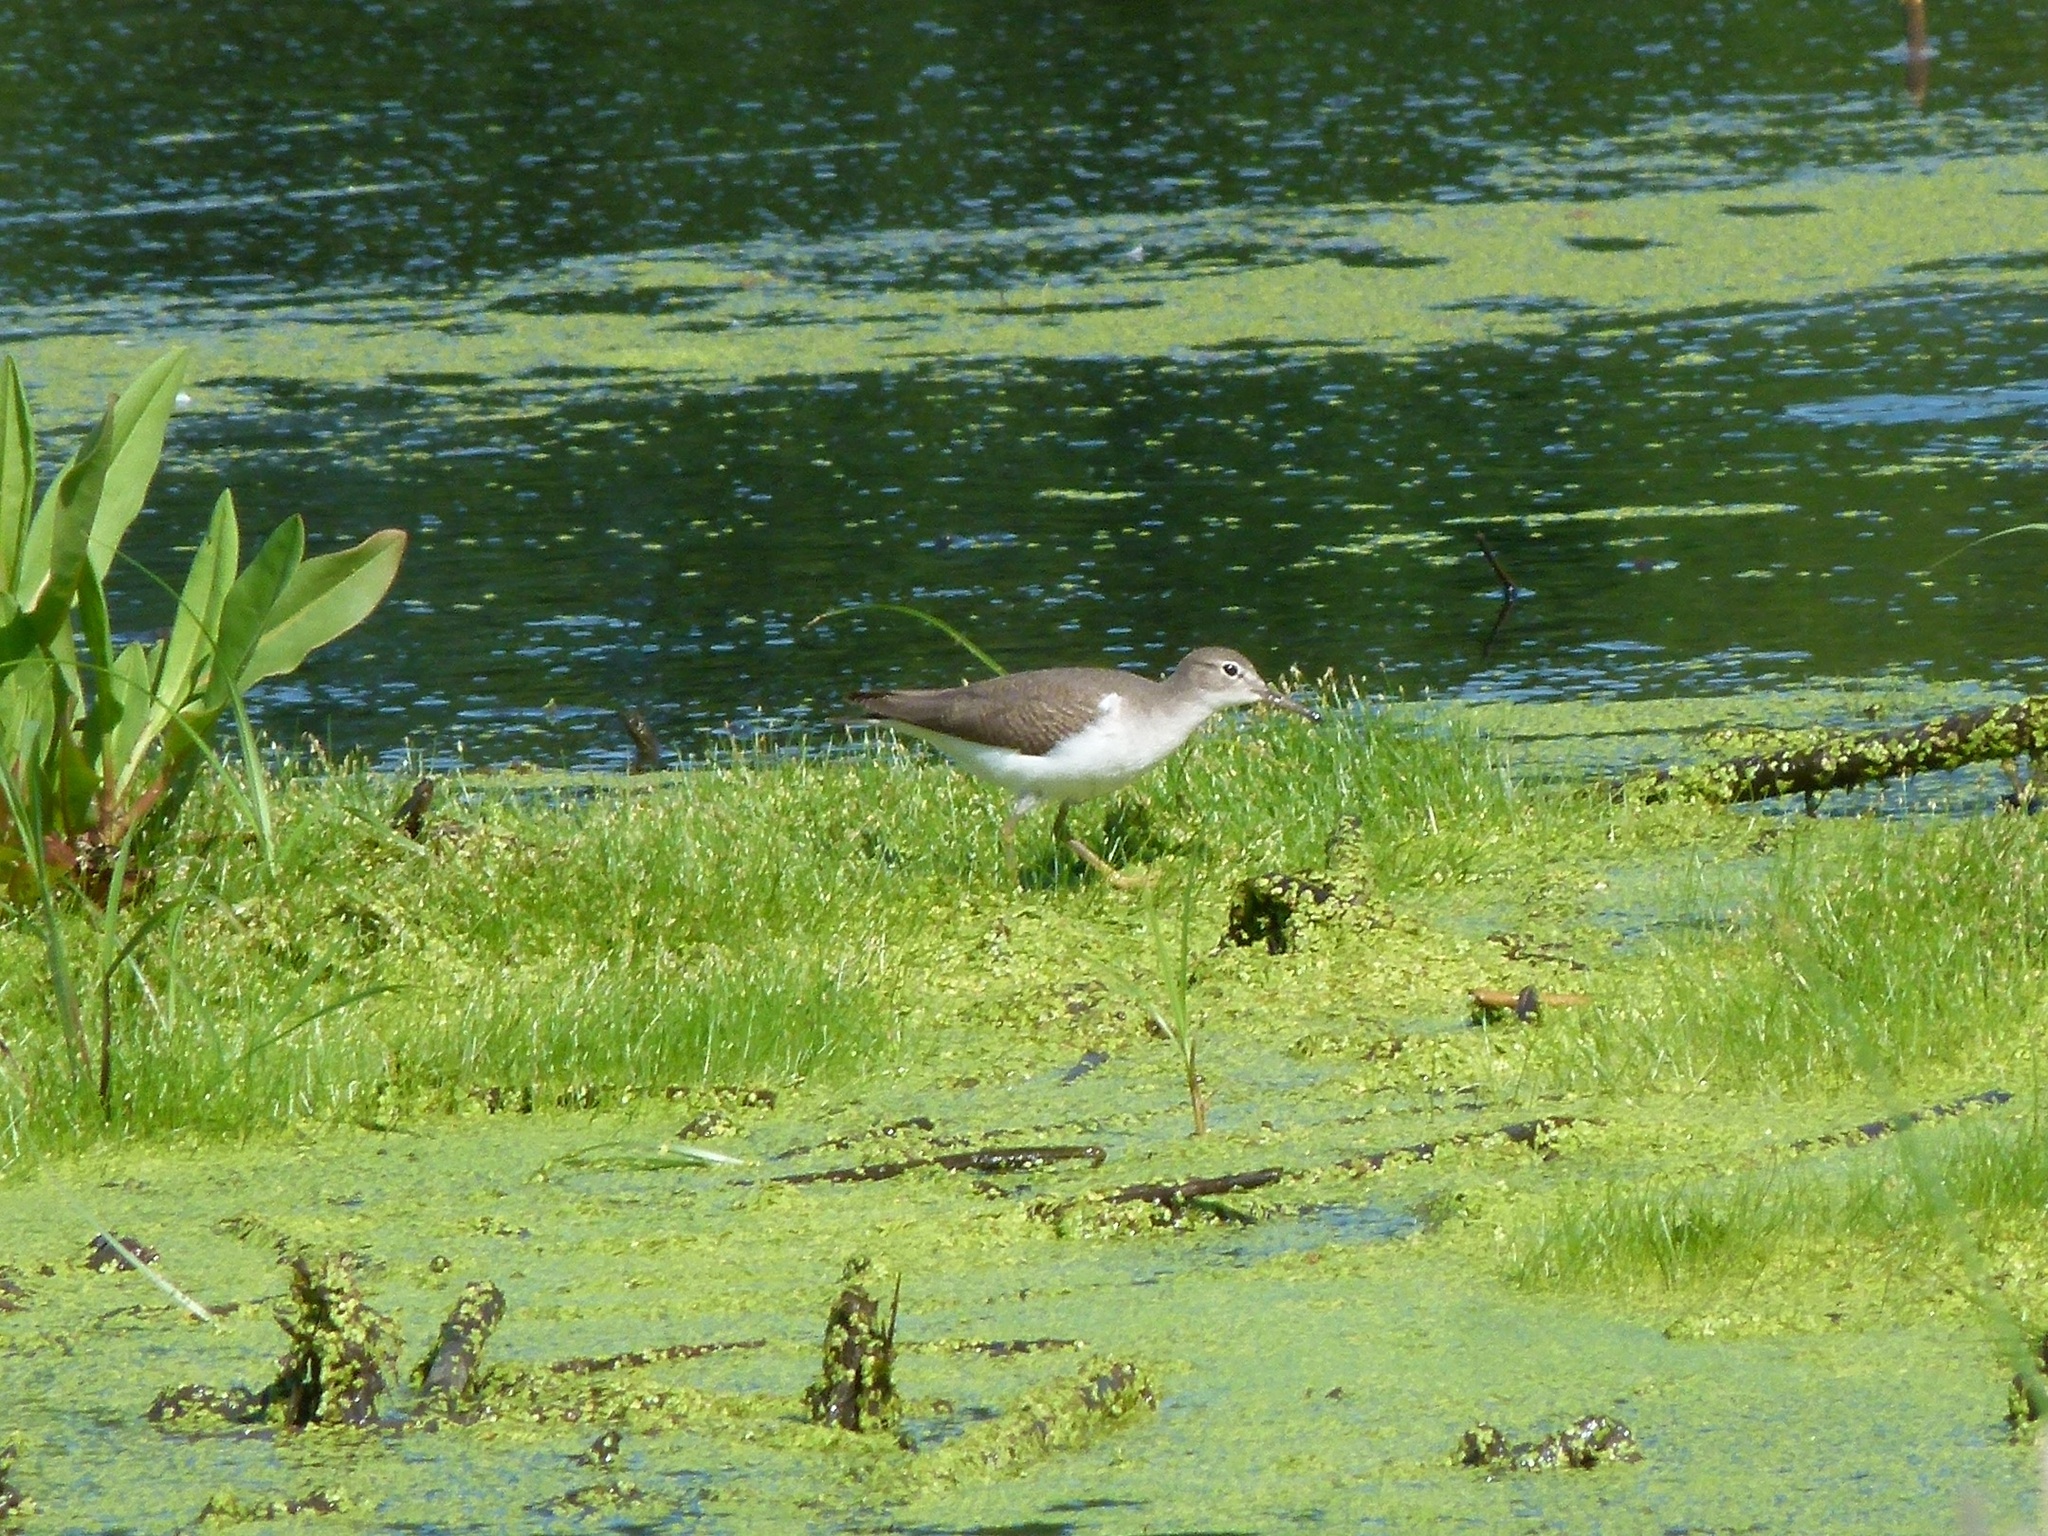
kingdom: Animalia
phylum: Chordata
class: Aves
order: Charadriiformes
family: Scolopacidae
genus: Actitis
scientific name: Actitis macularius
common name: Spotted sandpiper
